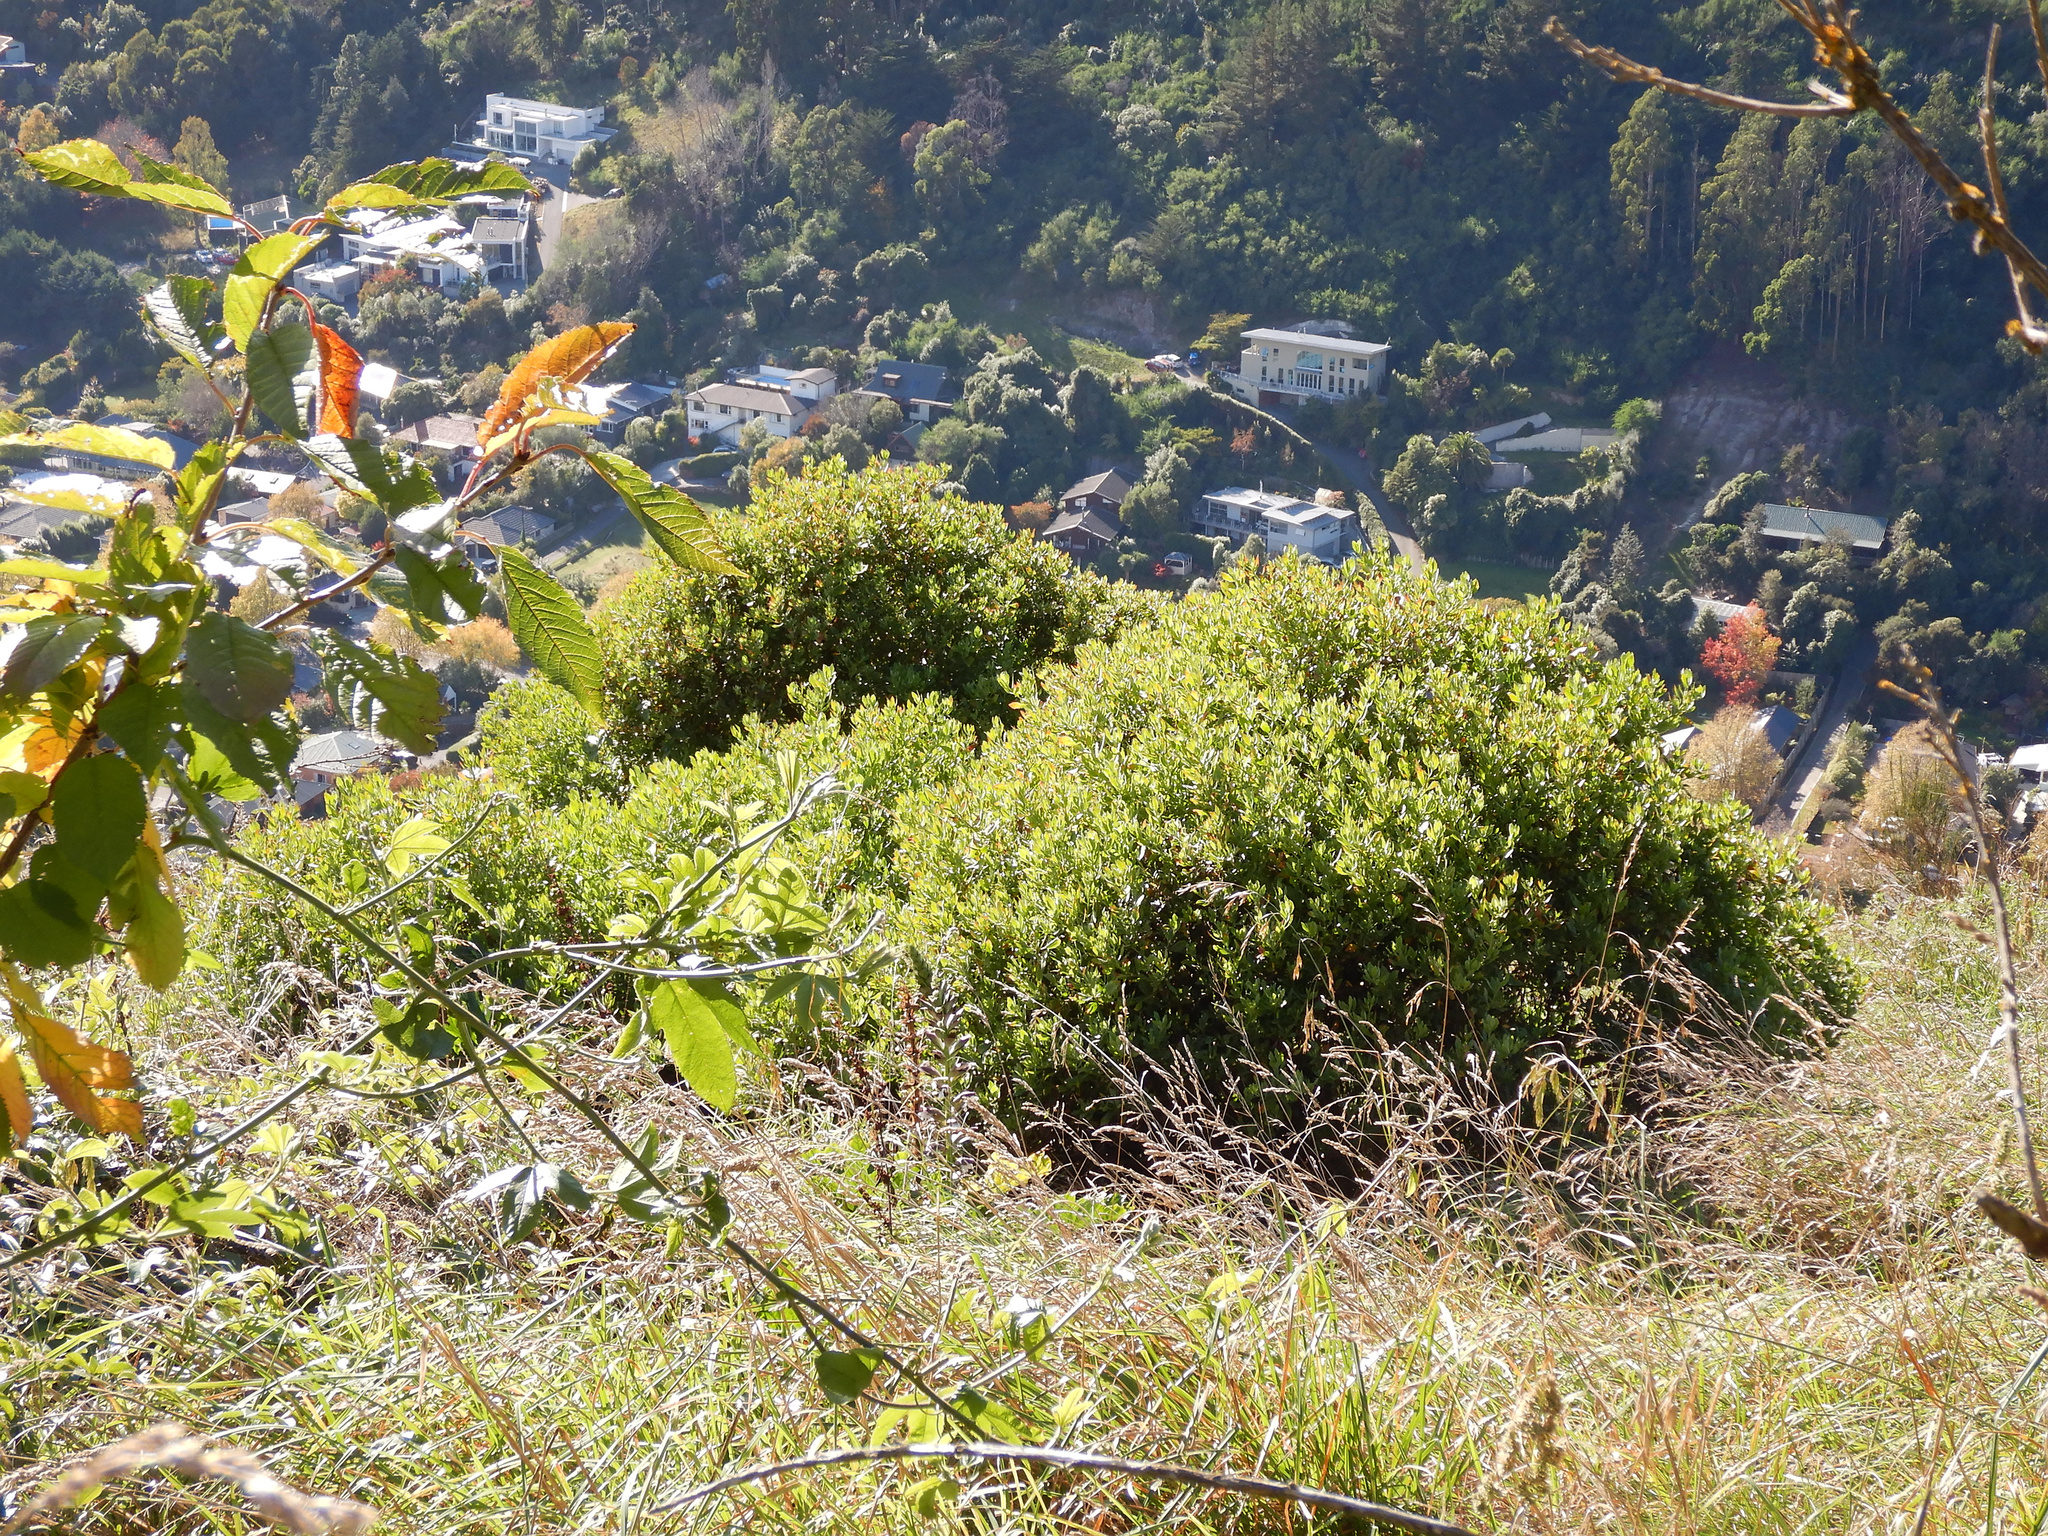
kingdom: Plantae
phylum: Tracheophyta
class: Magnoliopsida
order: Asterales
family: Asteraceae
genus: Osteospermum
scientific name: Osteospermum moniliferum
